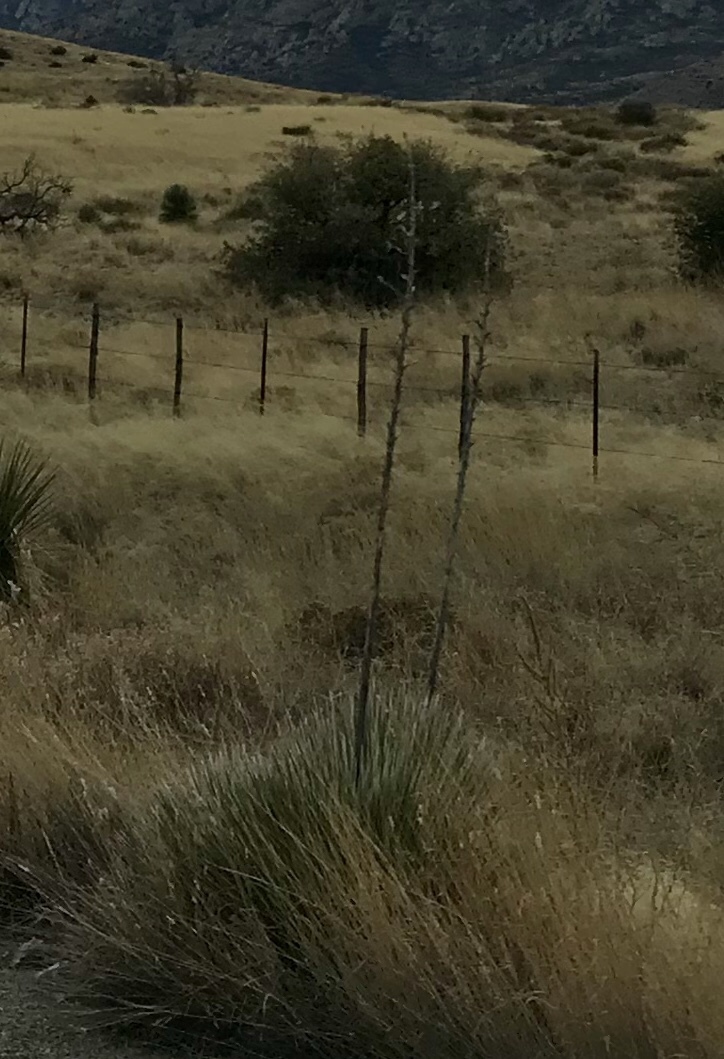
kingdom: Plantae
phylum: Tracheophyta
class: Liliopsida
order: Asparagales
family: Asparagaceae
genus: Yucca
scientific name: Yucca elata
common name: Palmella
